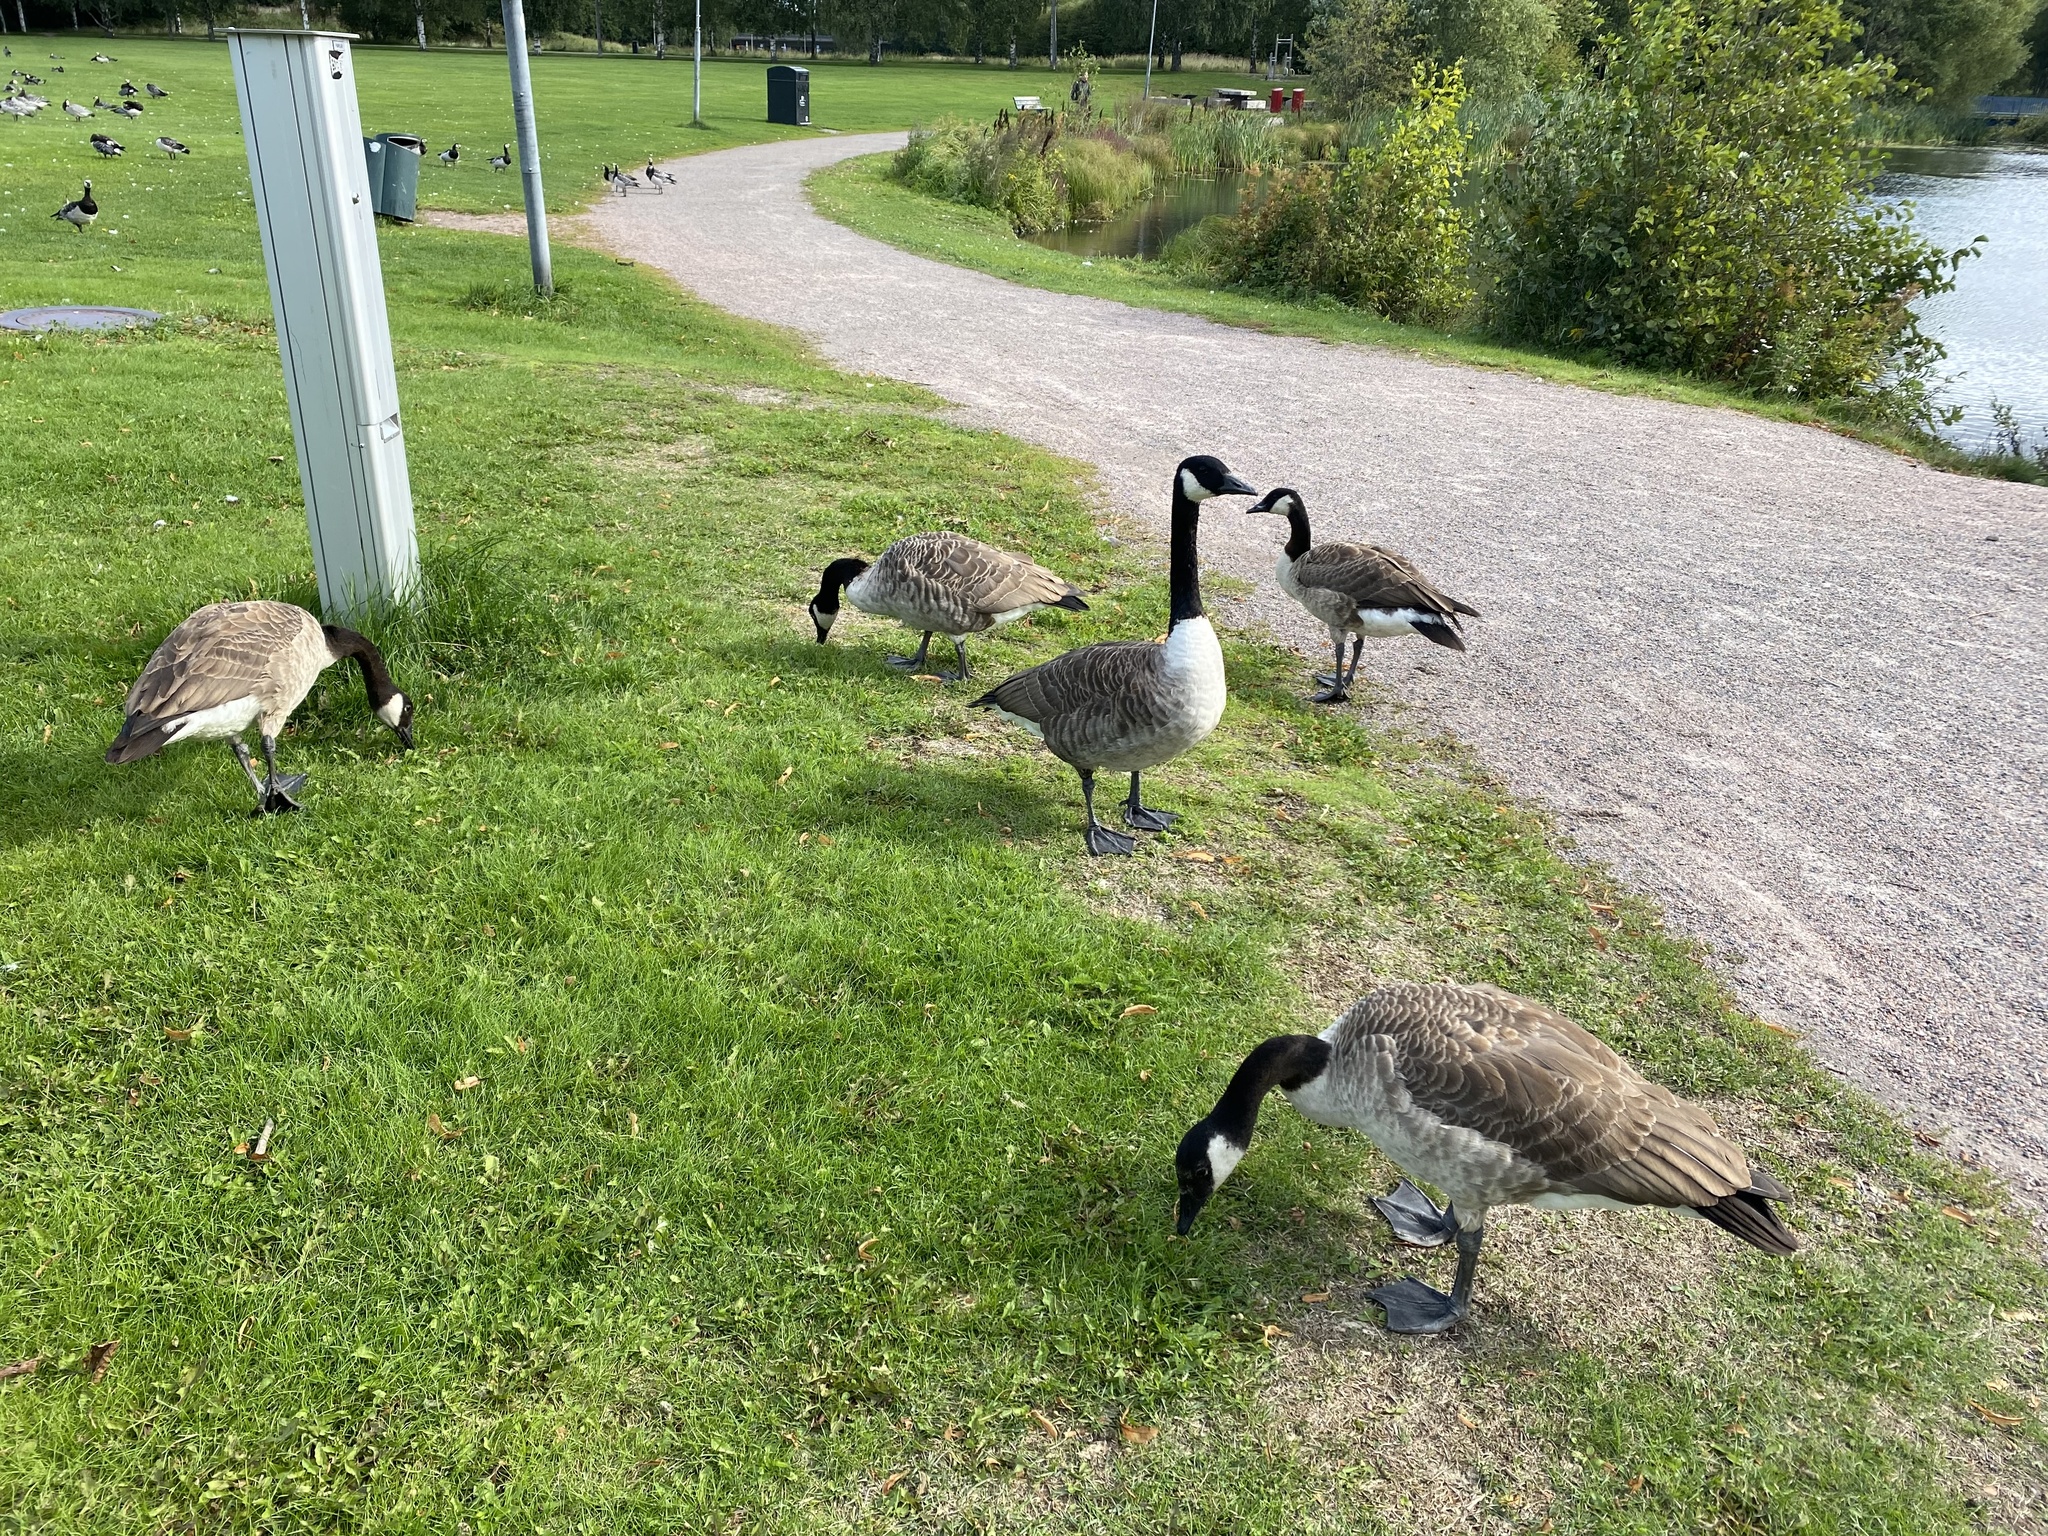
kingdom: Animalia
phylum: Chordata
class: Aves
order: Anseriformes
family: Anatidae
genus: Branta
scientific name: Branta canadensis
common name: Canada goose
